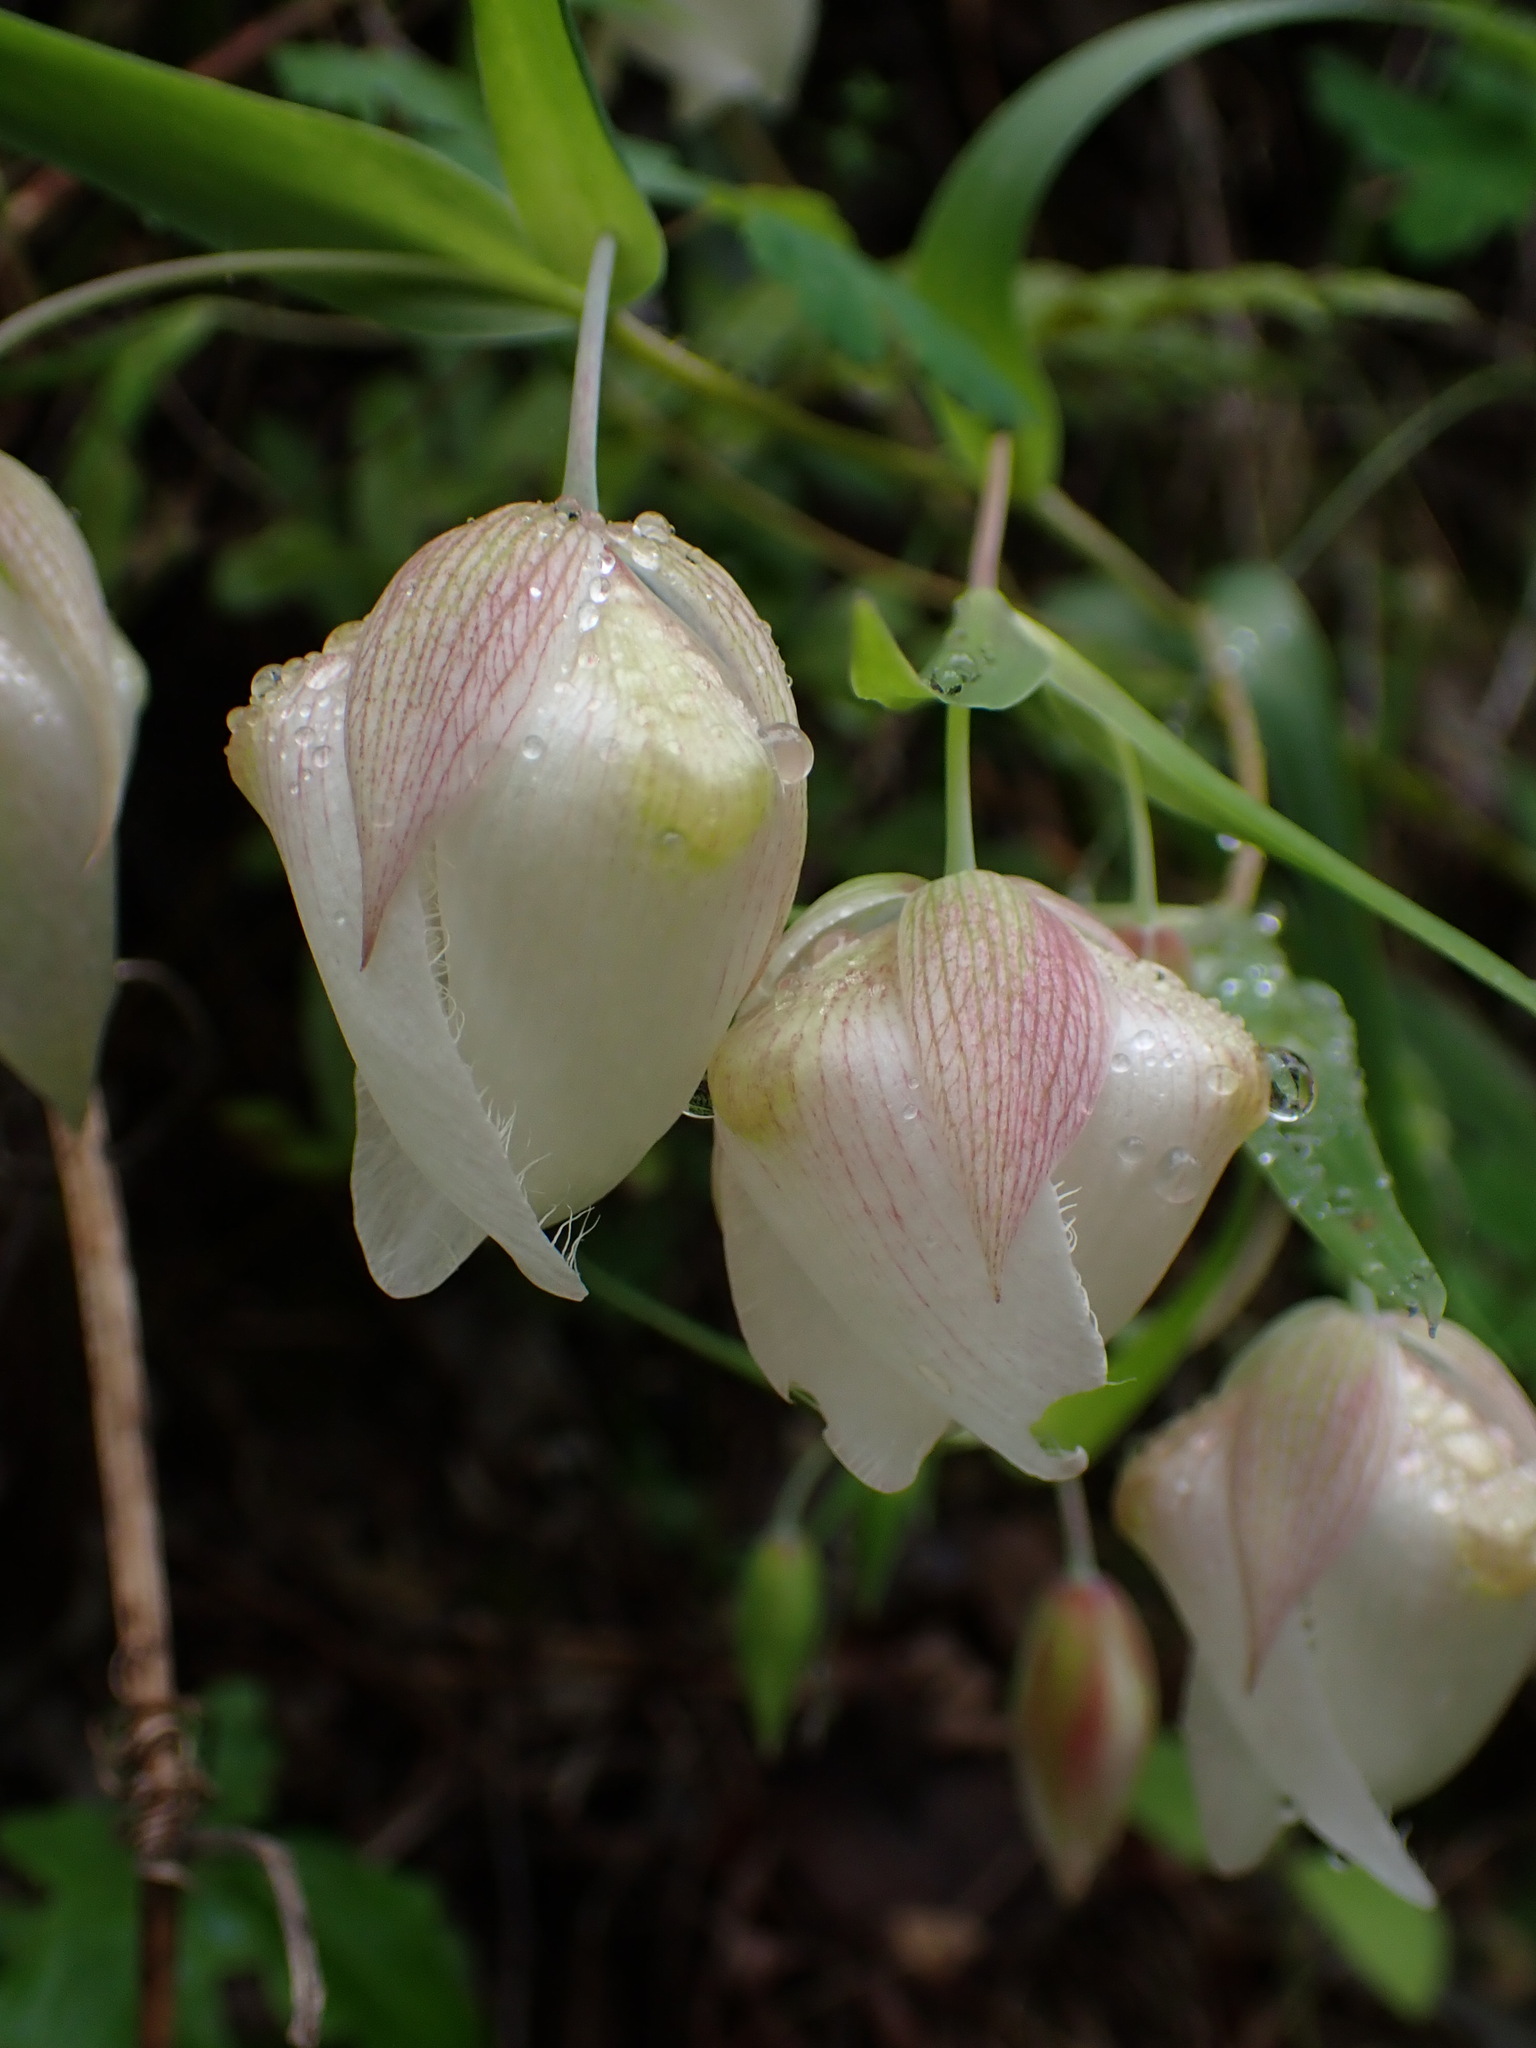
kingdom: Plantae
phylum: Tracheophyta
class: Liliopsida
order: Liliales
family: Liliaceae
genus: Calochortus
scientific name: Calochortus albus
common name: Fairy-lantern
